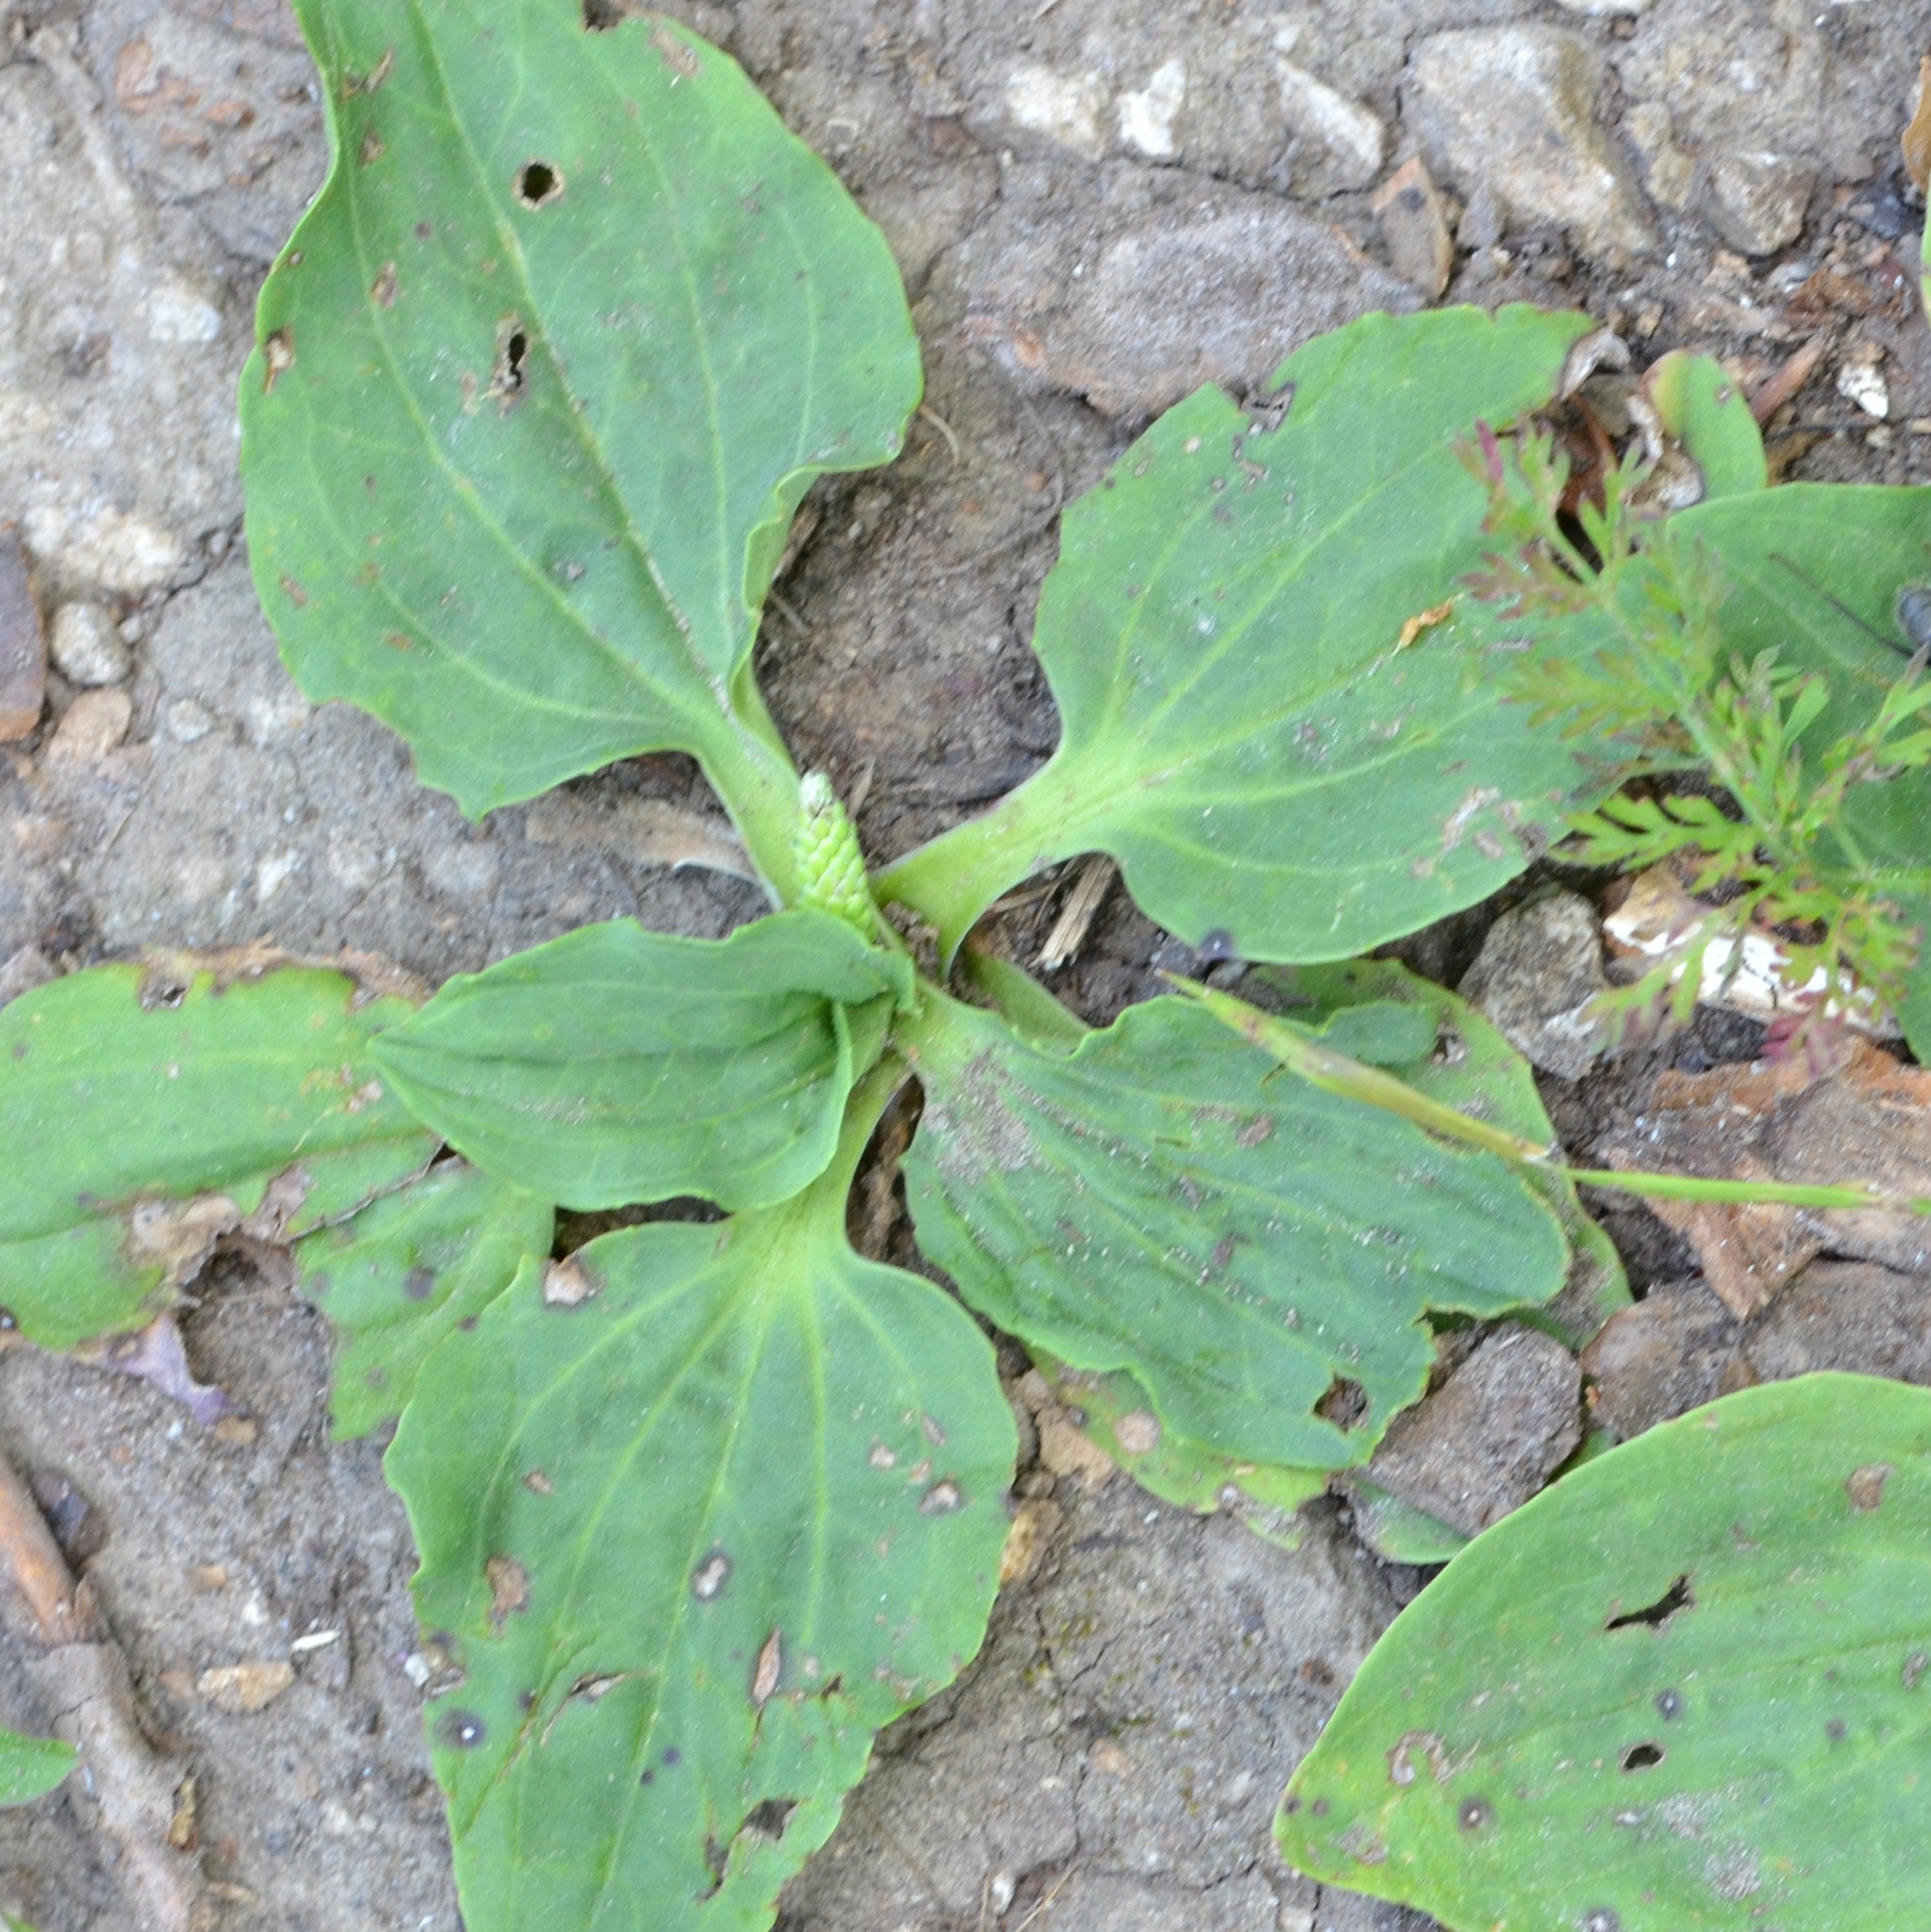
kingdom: Plantae
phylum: Tracheophyta
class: Magnoliopsida
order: Lamiales
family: Plantaginaceae
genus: Plantago
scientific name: Plantago major
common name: Common plantain
